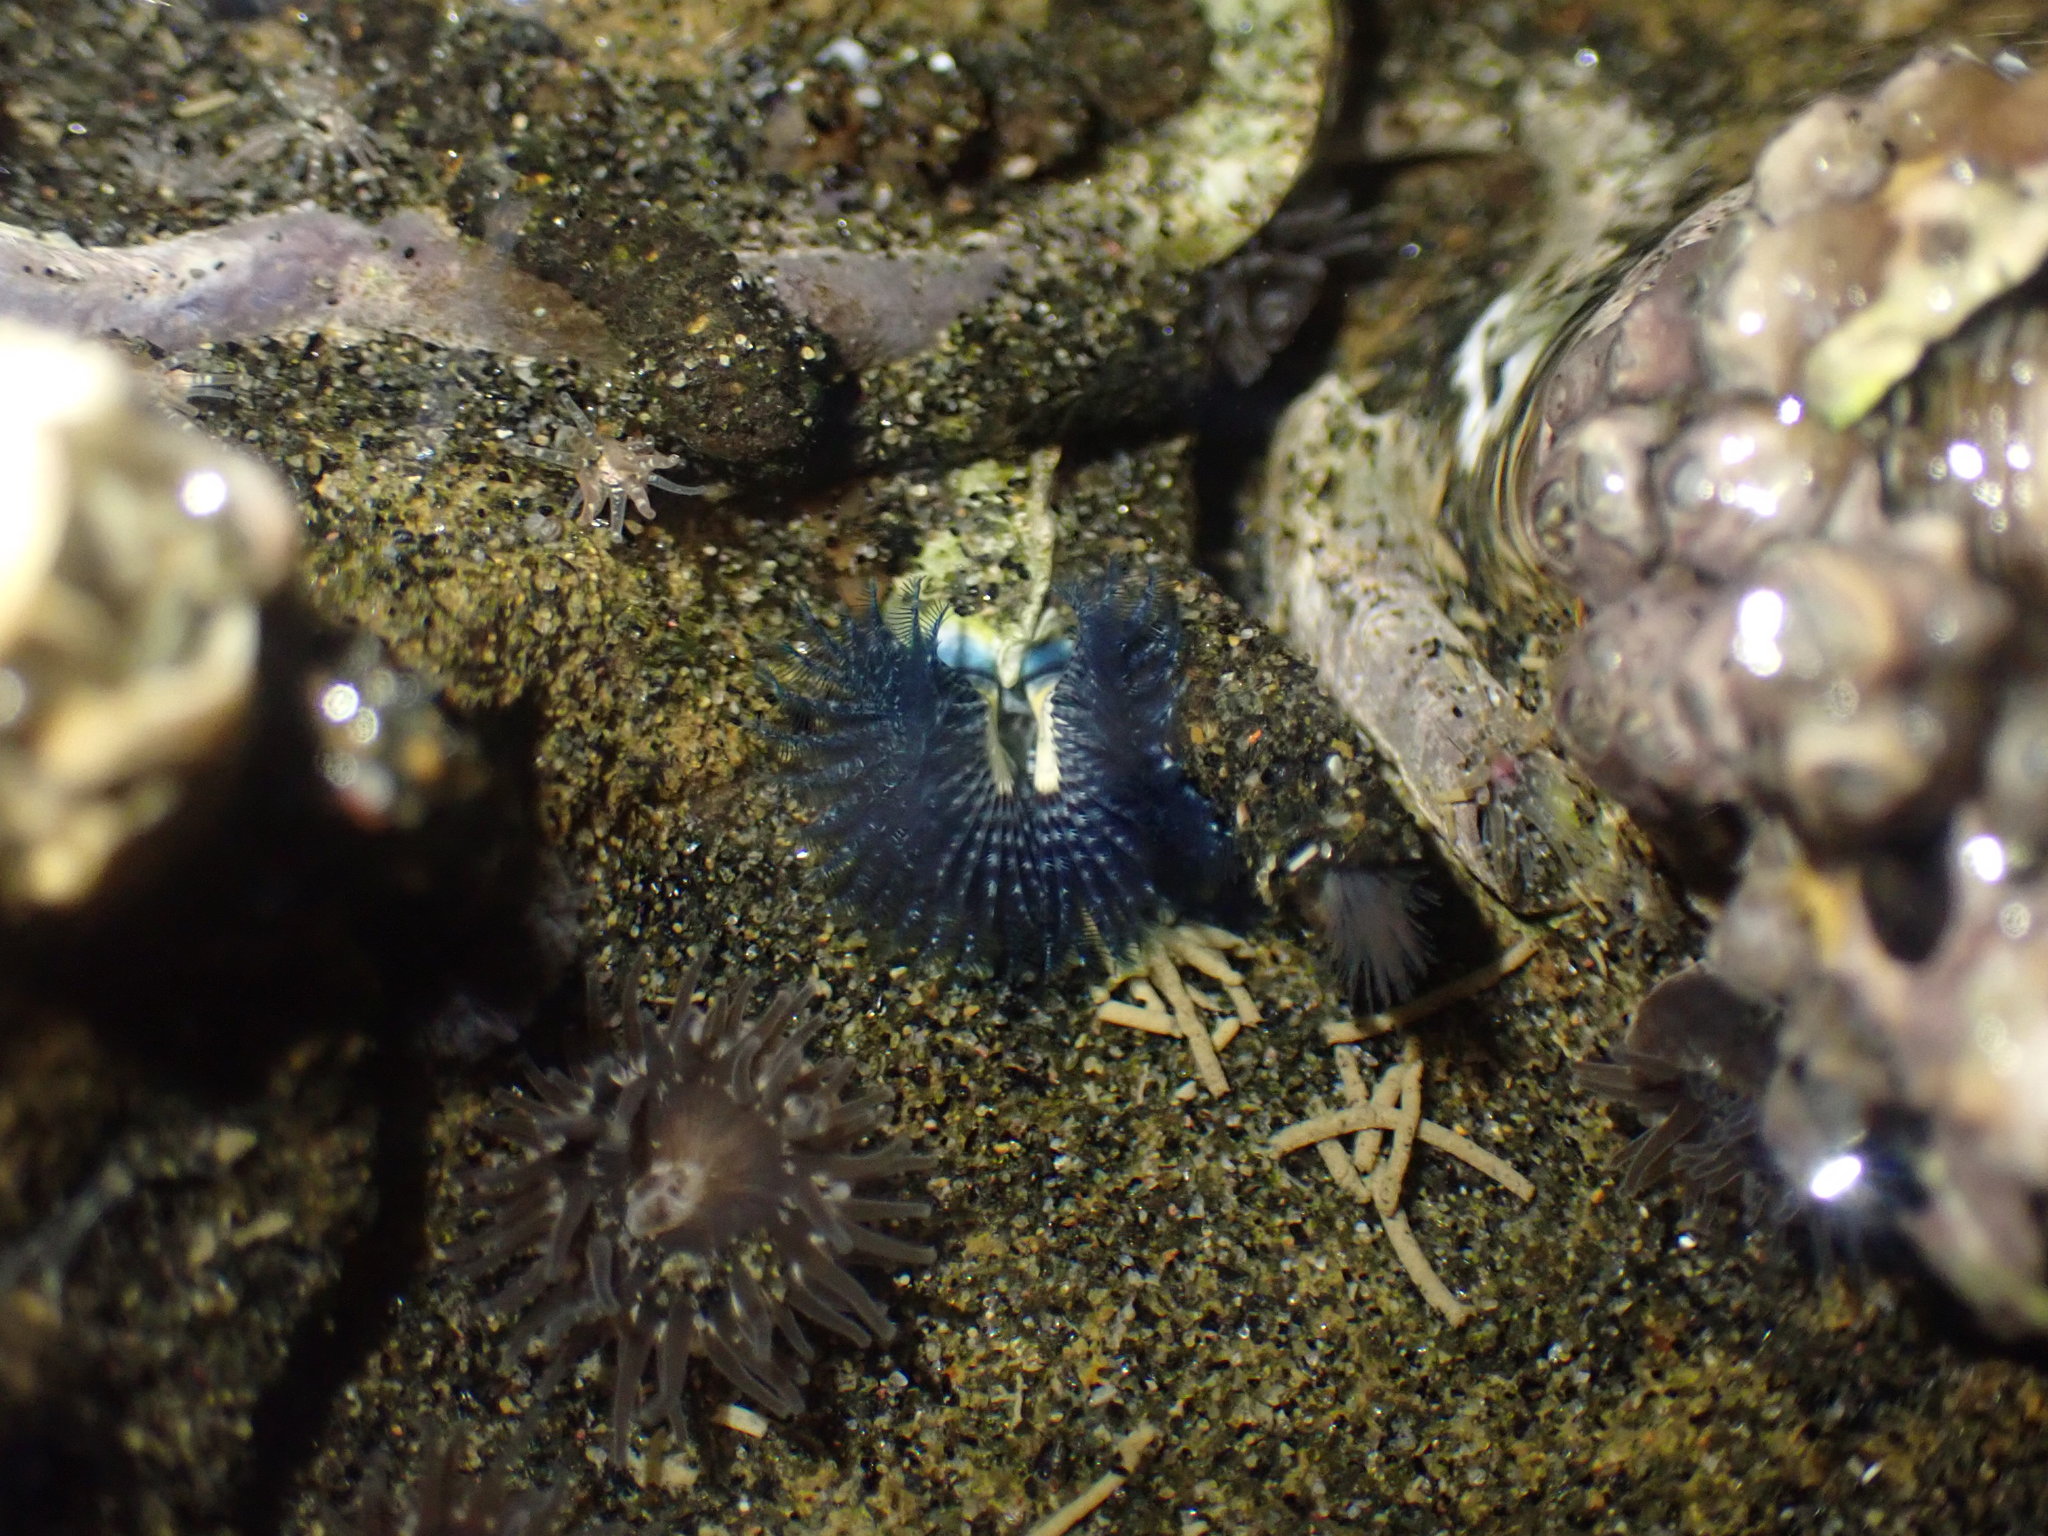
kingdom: Animalia
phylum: Annelida
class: Polychaeta
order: Sabellida
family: Serpulidae
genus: Spirobranchus
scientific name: Spirobranchus cariniferus
